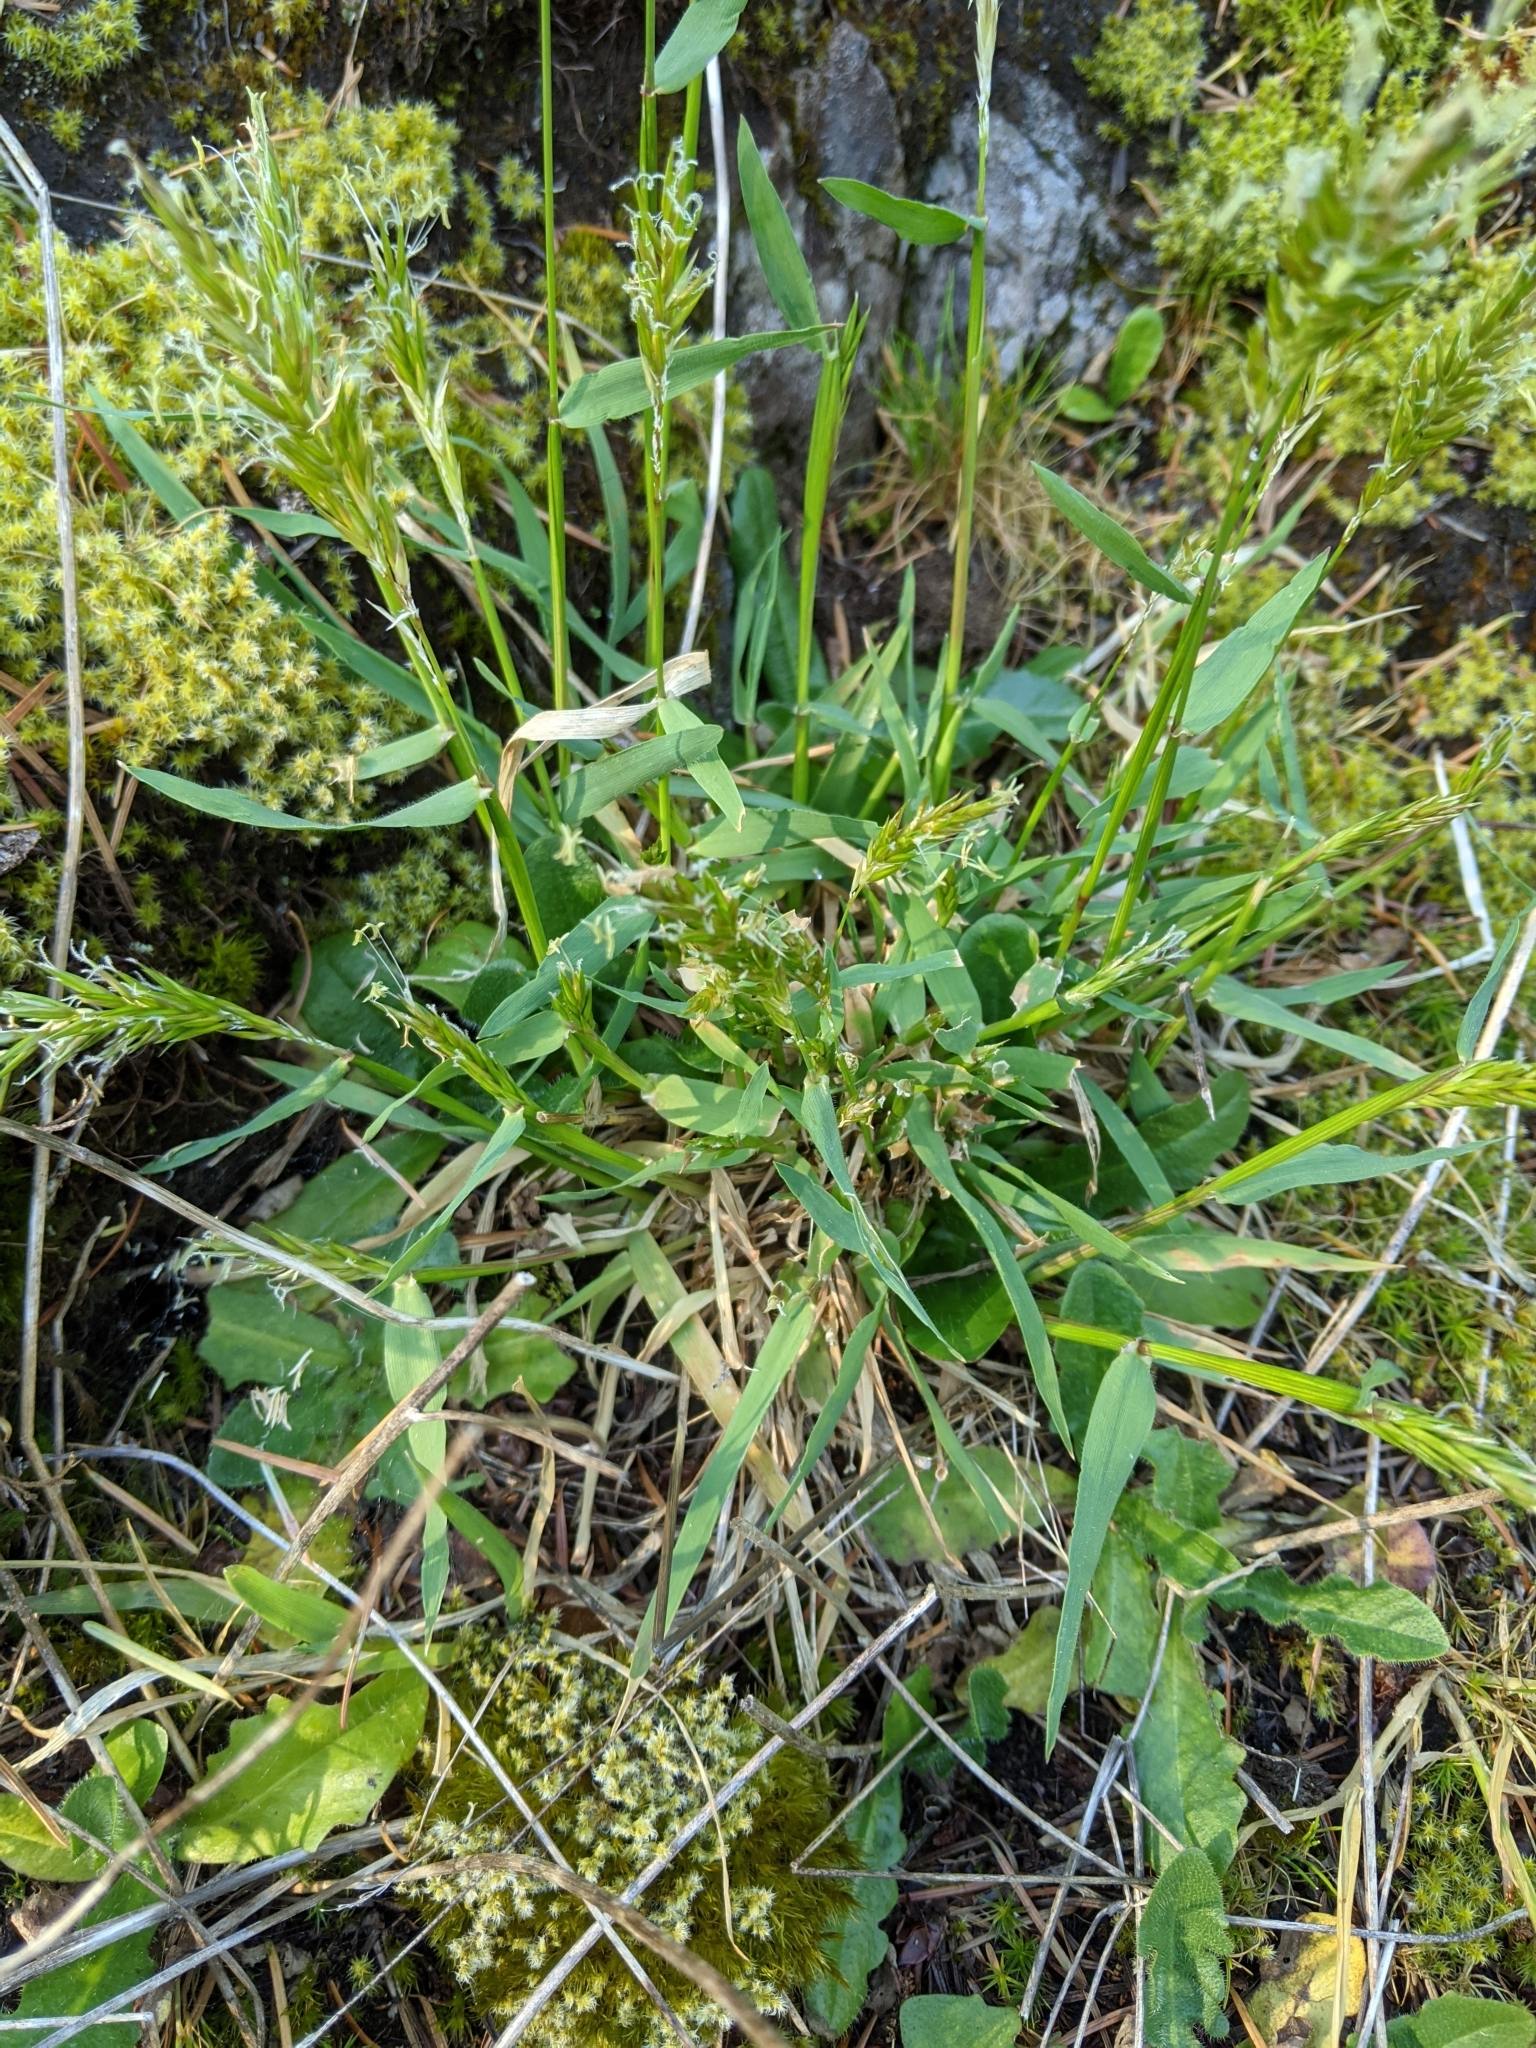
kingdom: Plantae
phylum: Tracheophyta
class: Liliopsida
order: Poales
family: Poaceae
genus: Anthoxanthum
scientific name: Anthoxanthum odoratum
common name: Sweet vernalgrass
